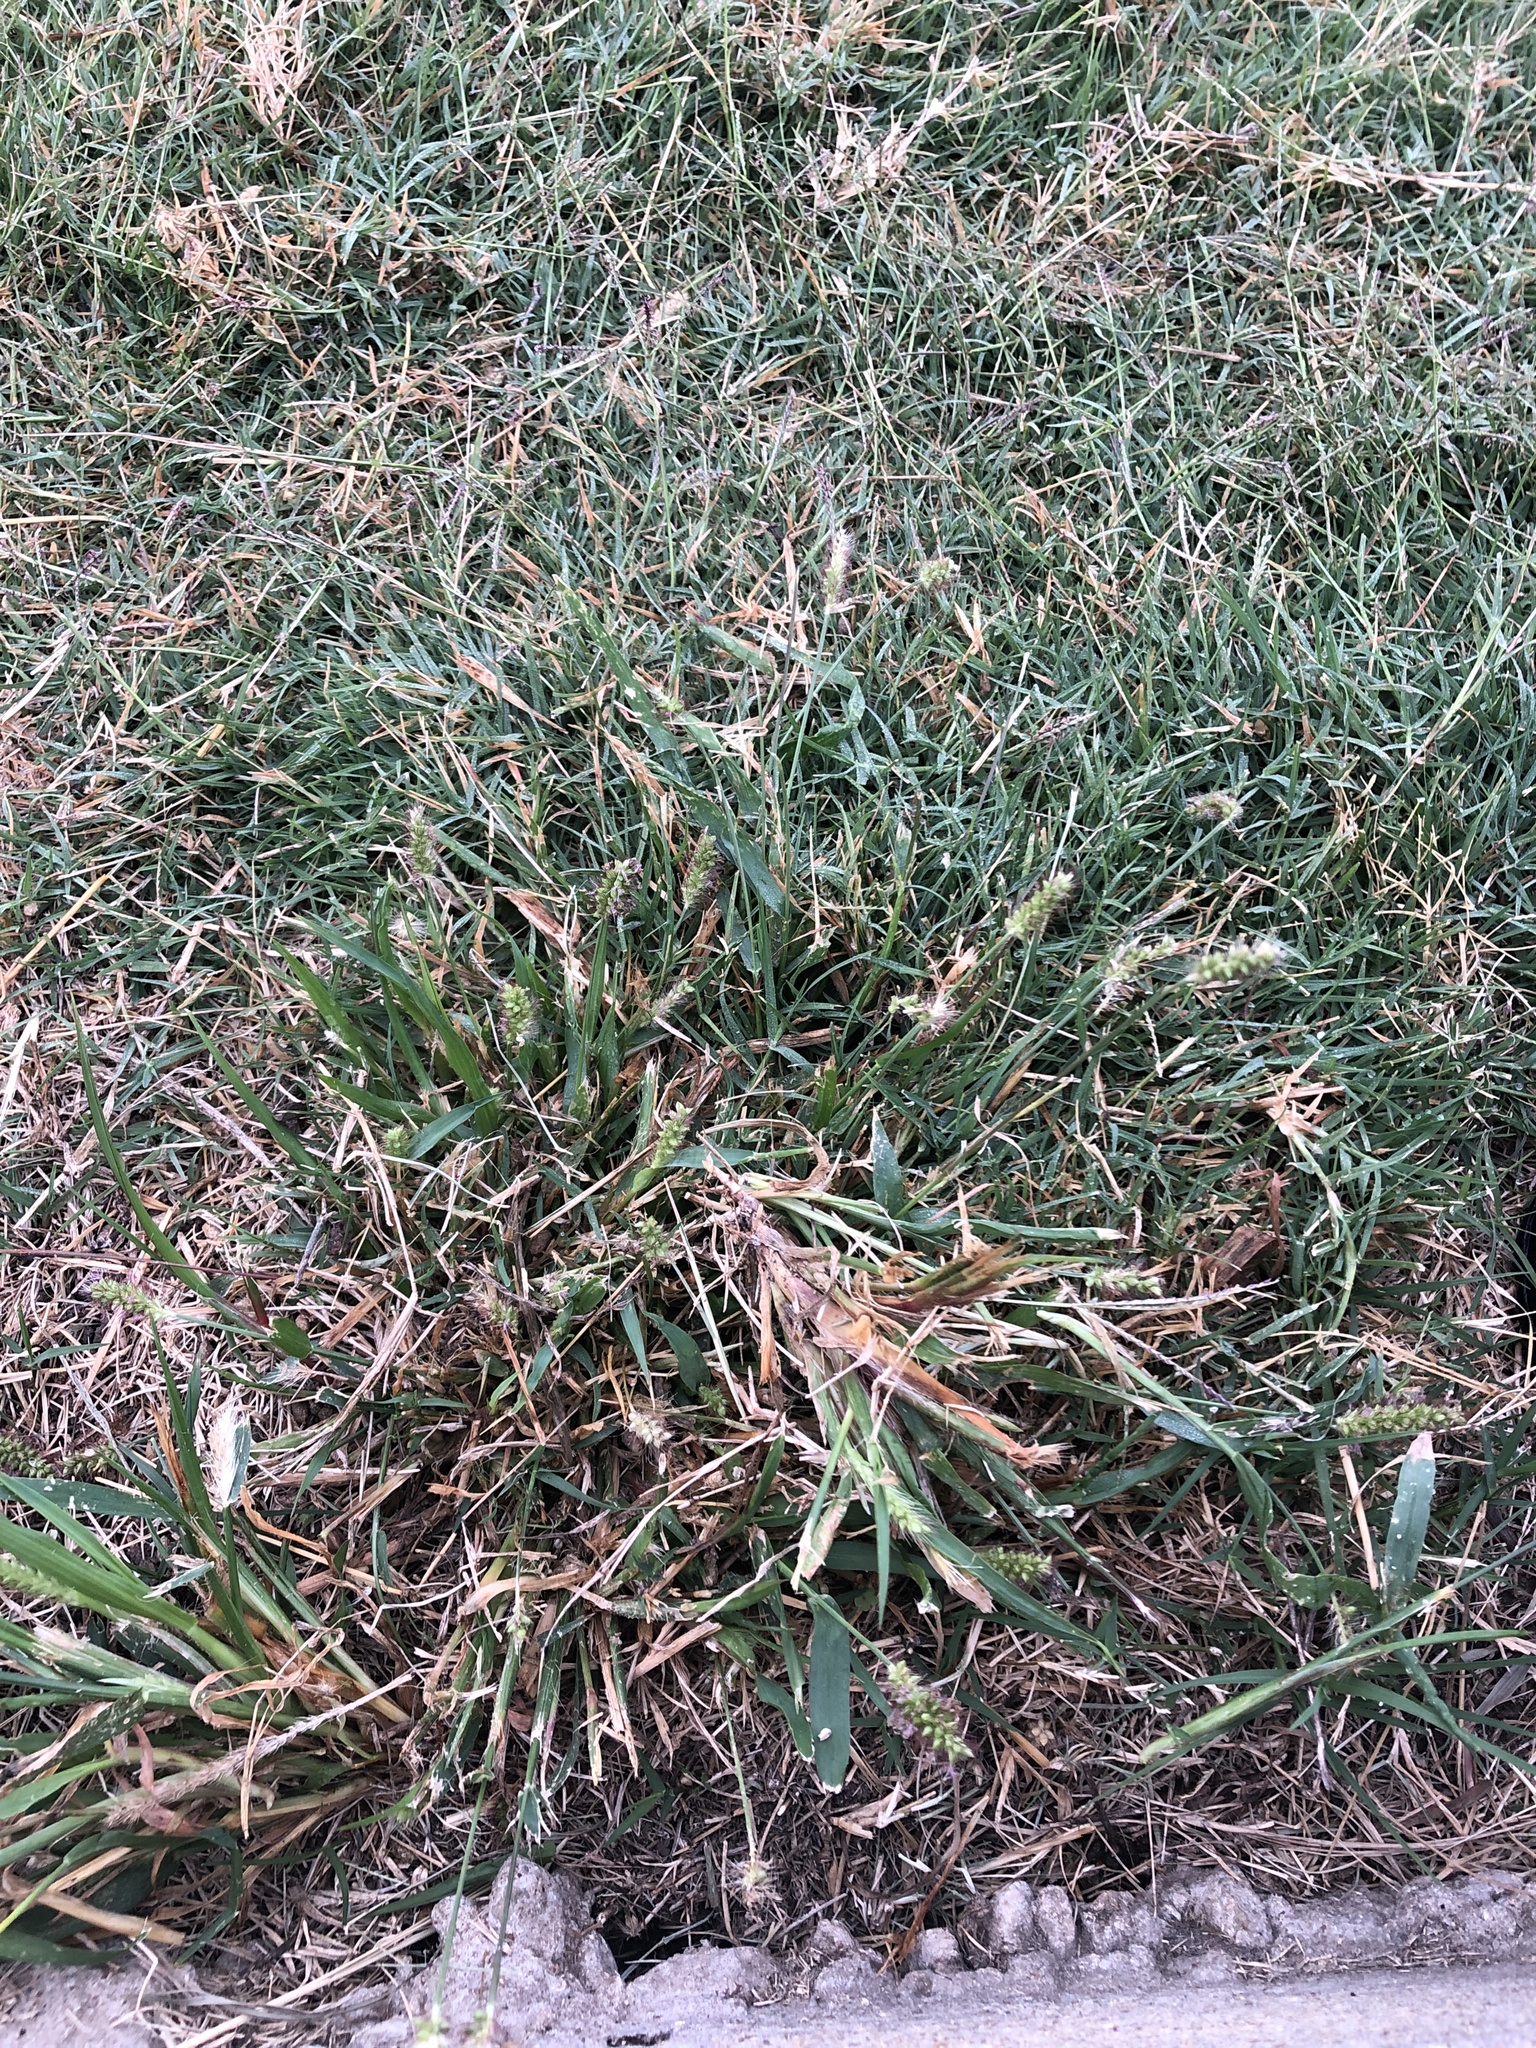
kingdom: Plantae
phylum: Tracheophyta
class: Liliopsida
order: Poales
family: Poaceae
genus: Setaria
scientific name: Setaria parviflora
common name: Knotroot bristle-grass
